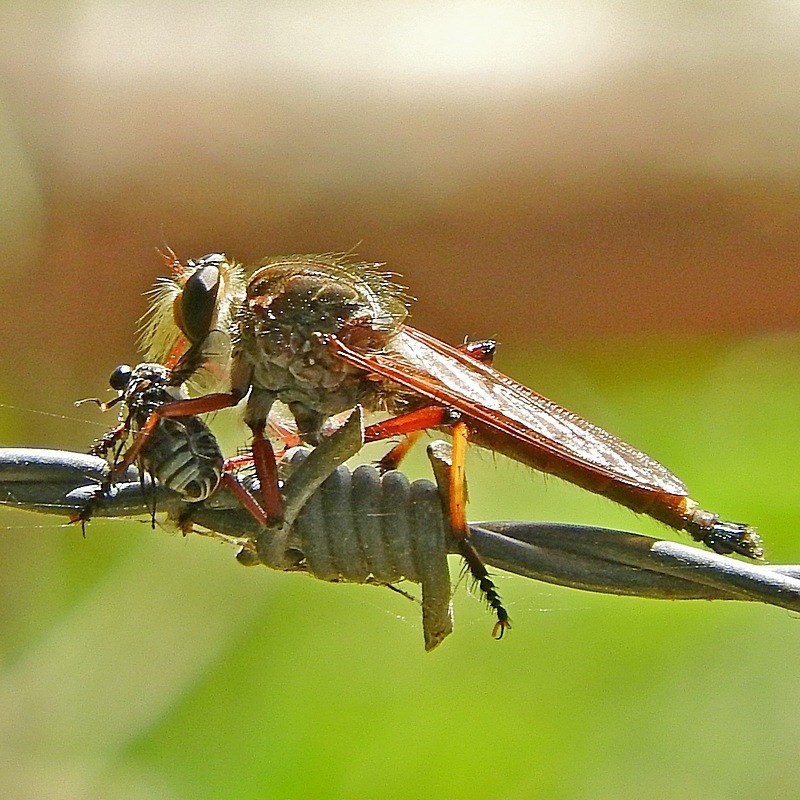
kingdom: Animalia
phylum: Arthropoda
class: Insecta
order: Diptera
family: Asilidae
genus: Colepia
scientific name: Colepia rufiventris
